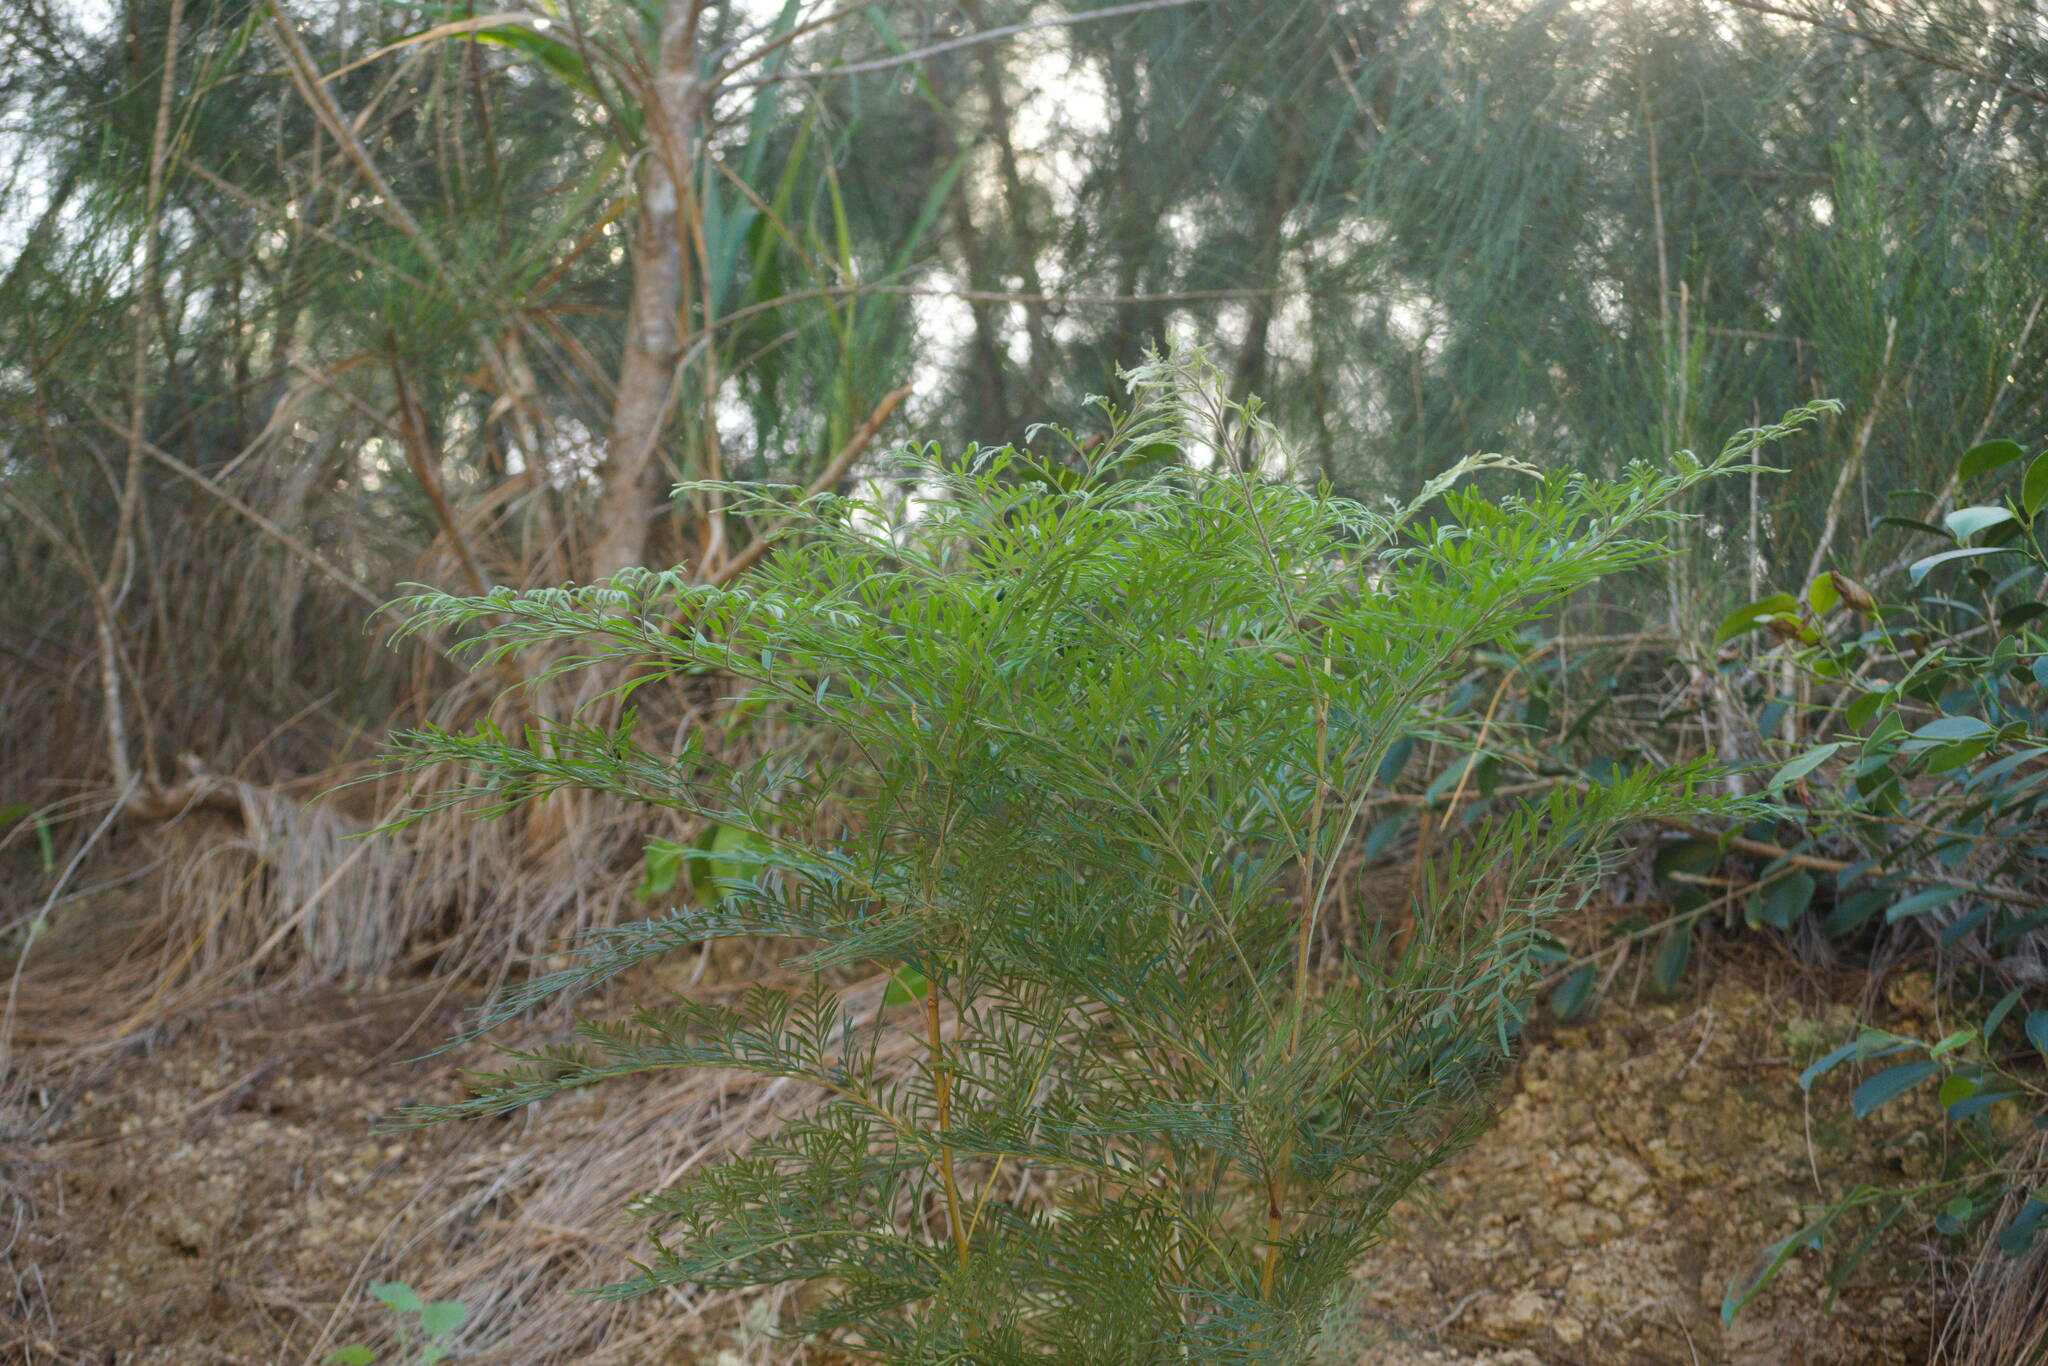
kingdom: Plantae
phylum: Tracheophyta
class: Magnoliopsida
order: Proteales
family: Proteaceae
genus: Grevillea
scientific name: Grevillea robusta
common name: Silkoak
